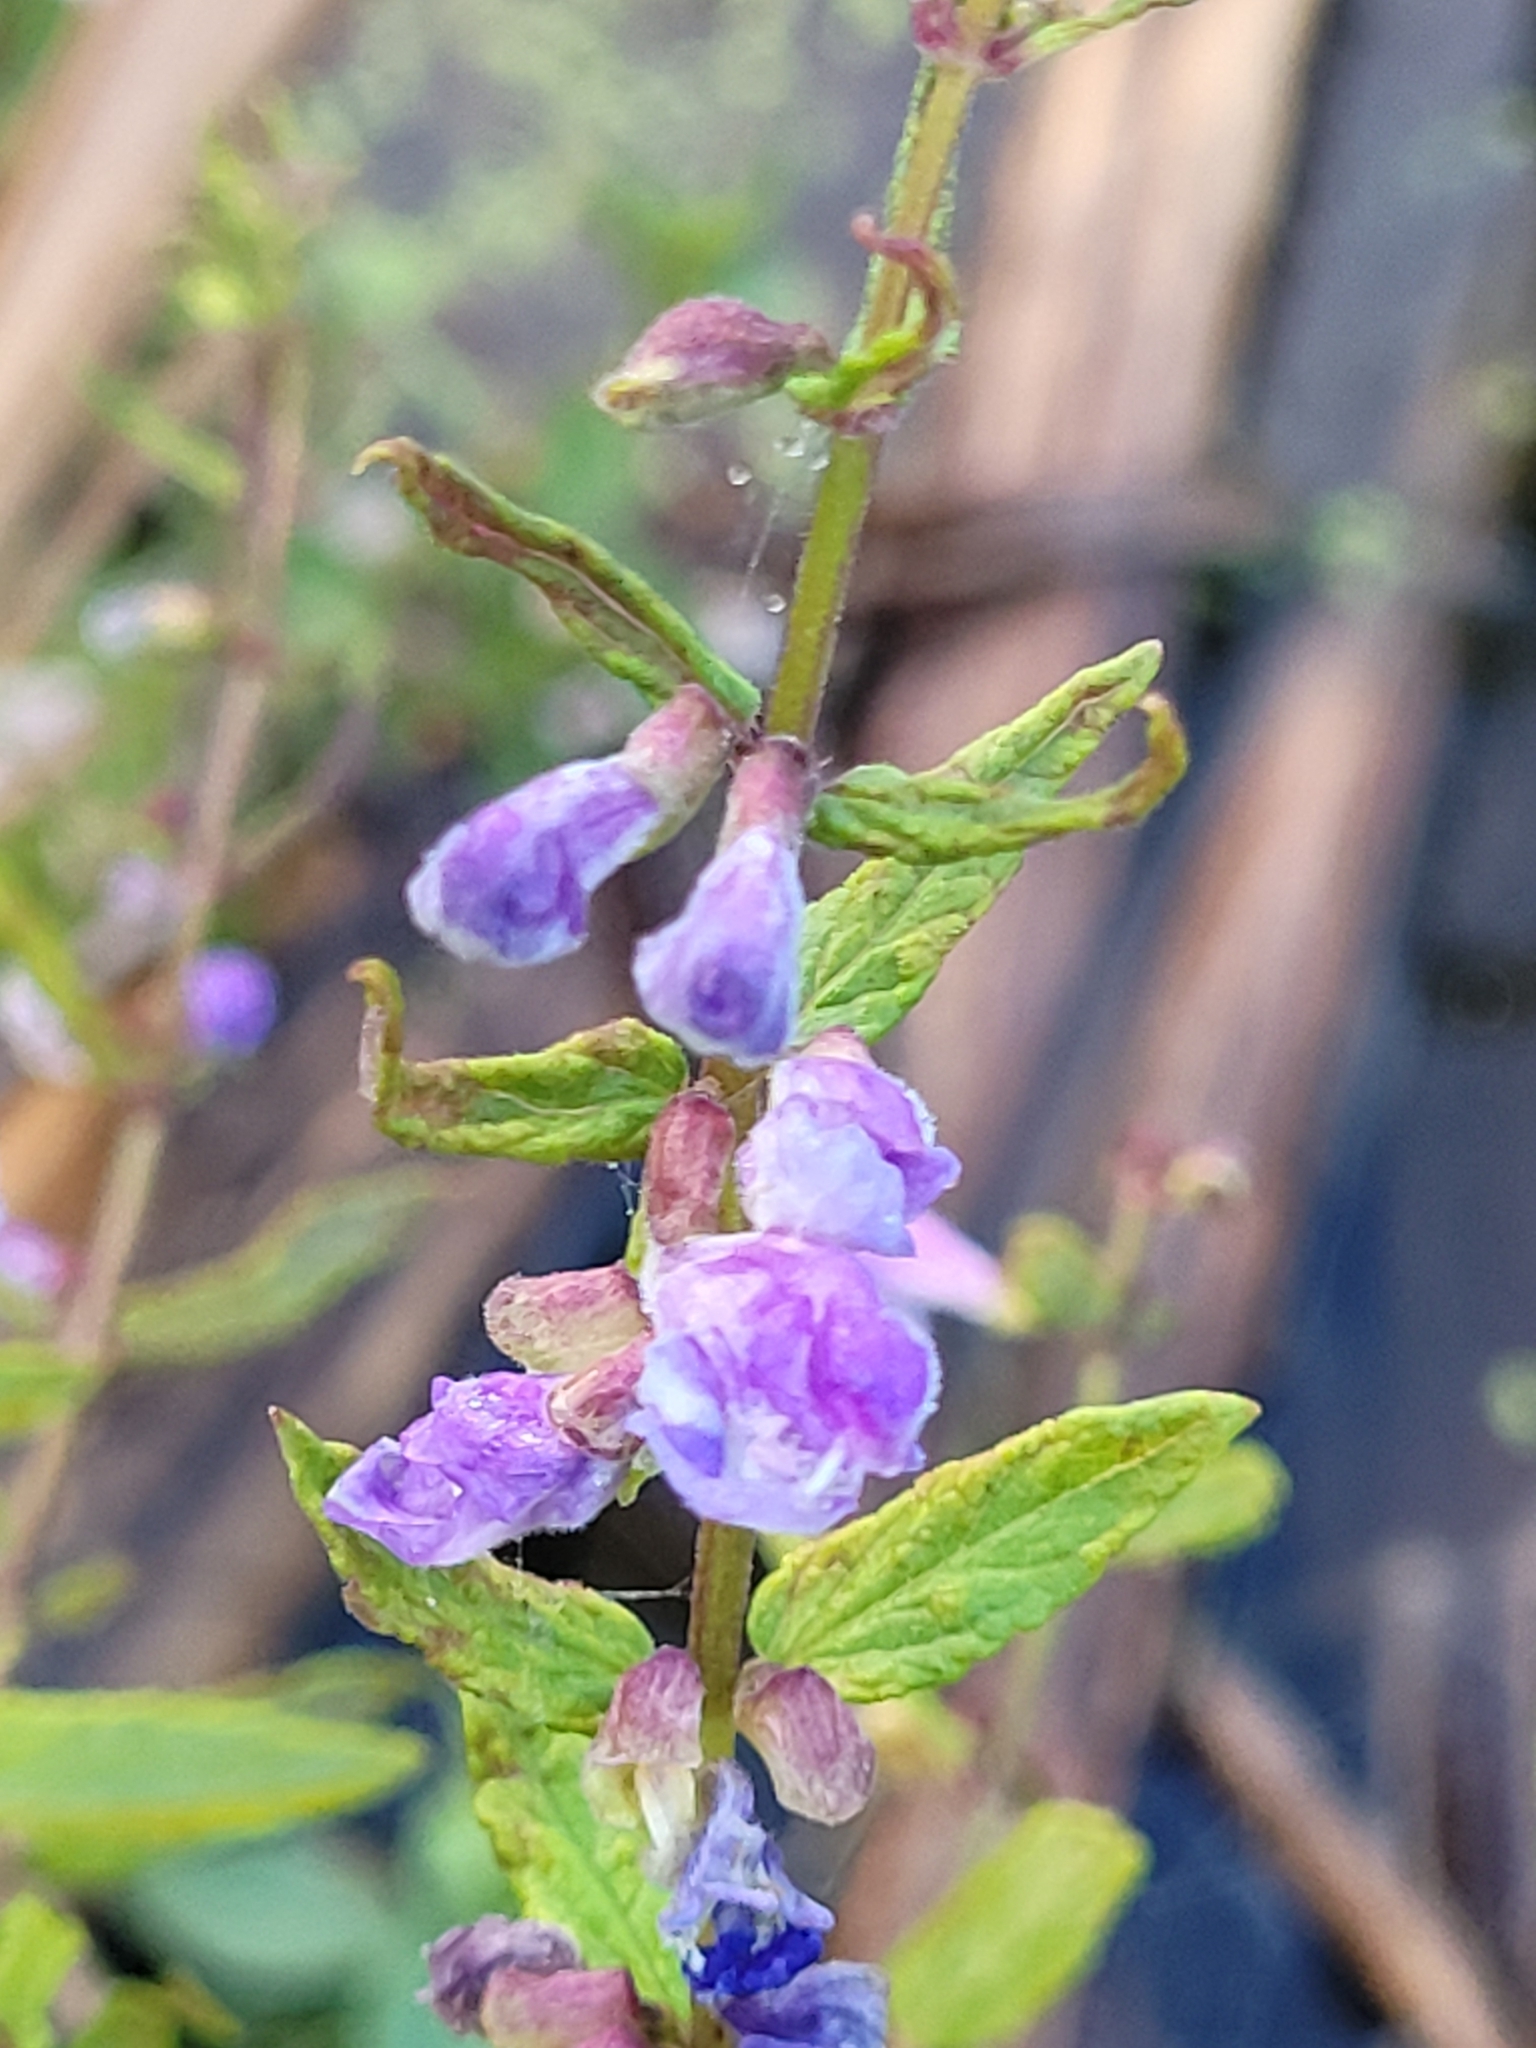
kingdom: Plantae
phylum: Tracheophyta
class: Magnoliopsida
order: Lamiales
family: Lamiaceae
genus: Scutellaria
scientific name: Scutellaria galericulata
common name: Skullcap
